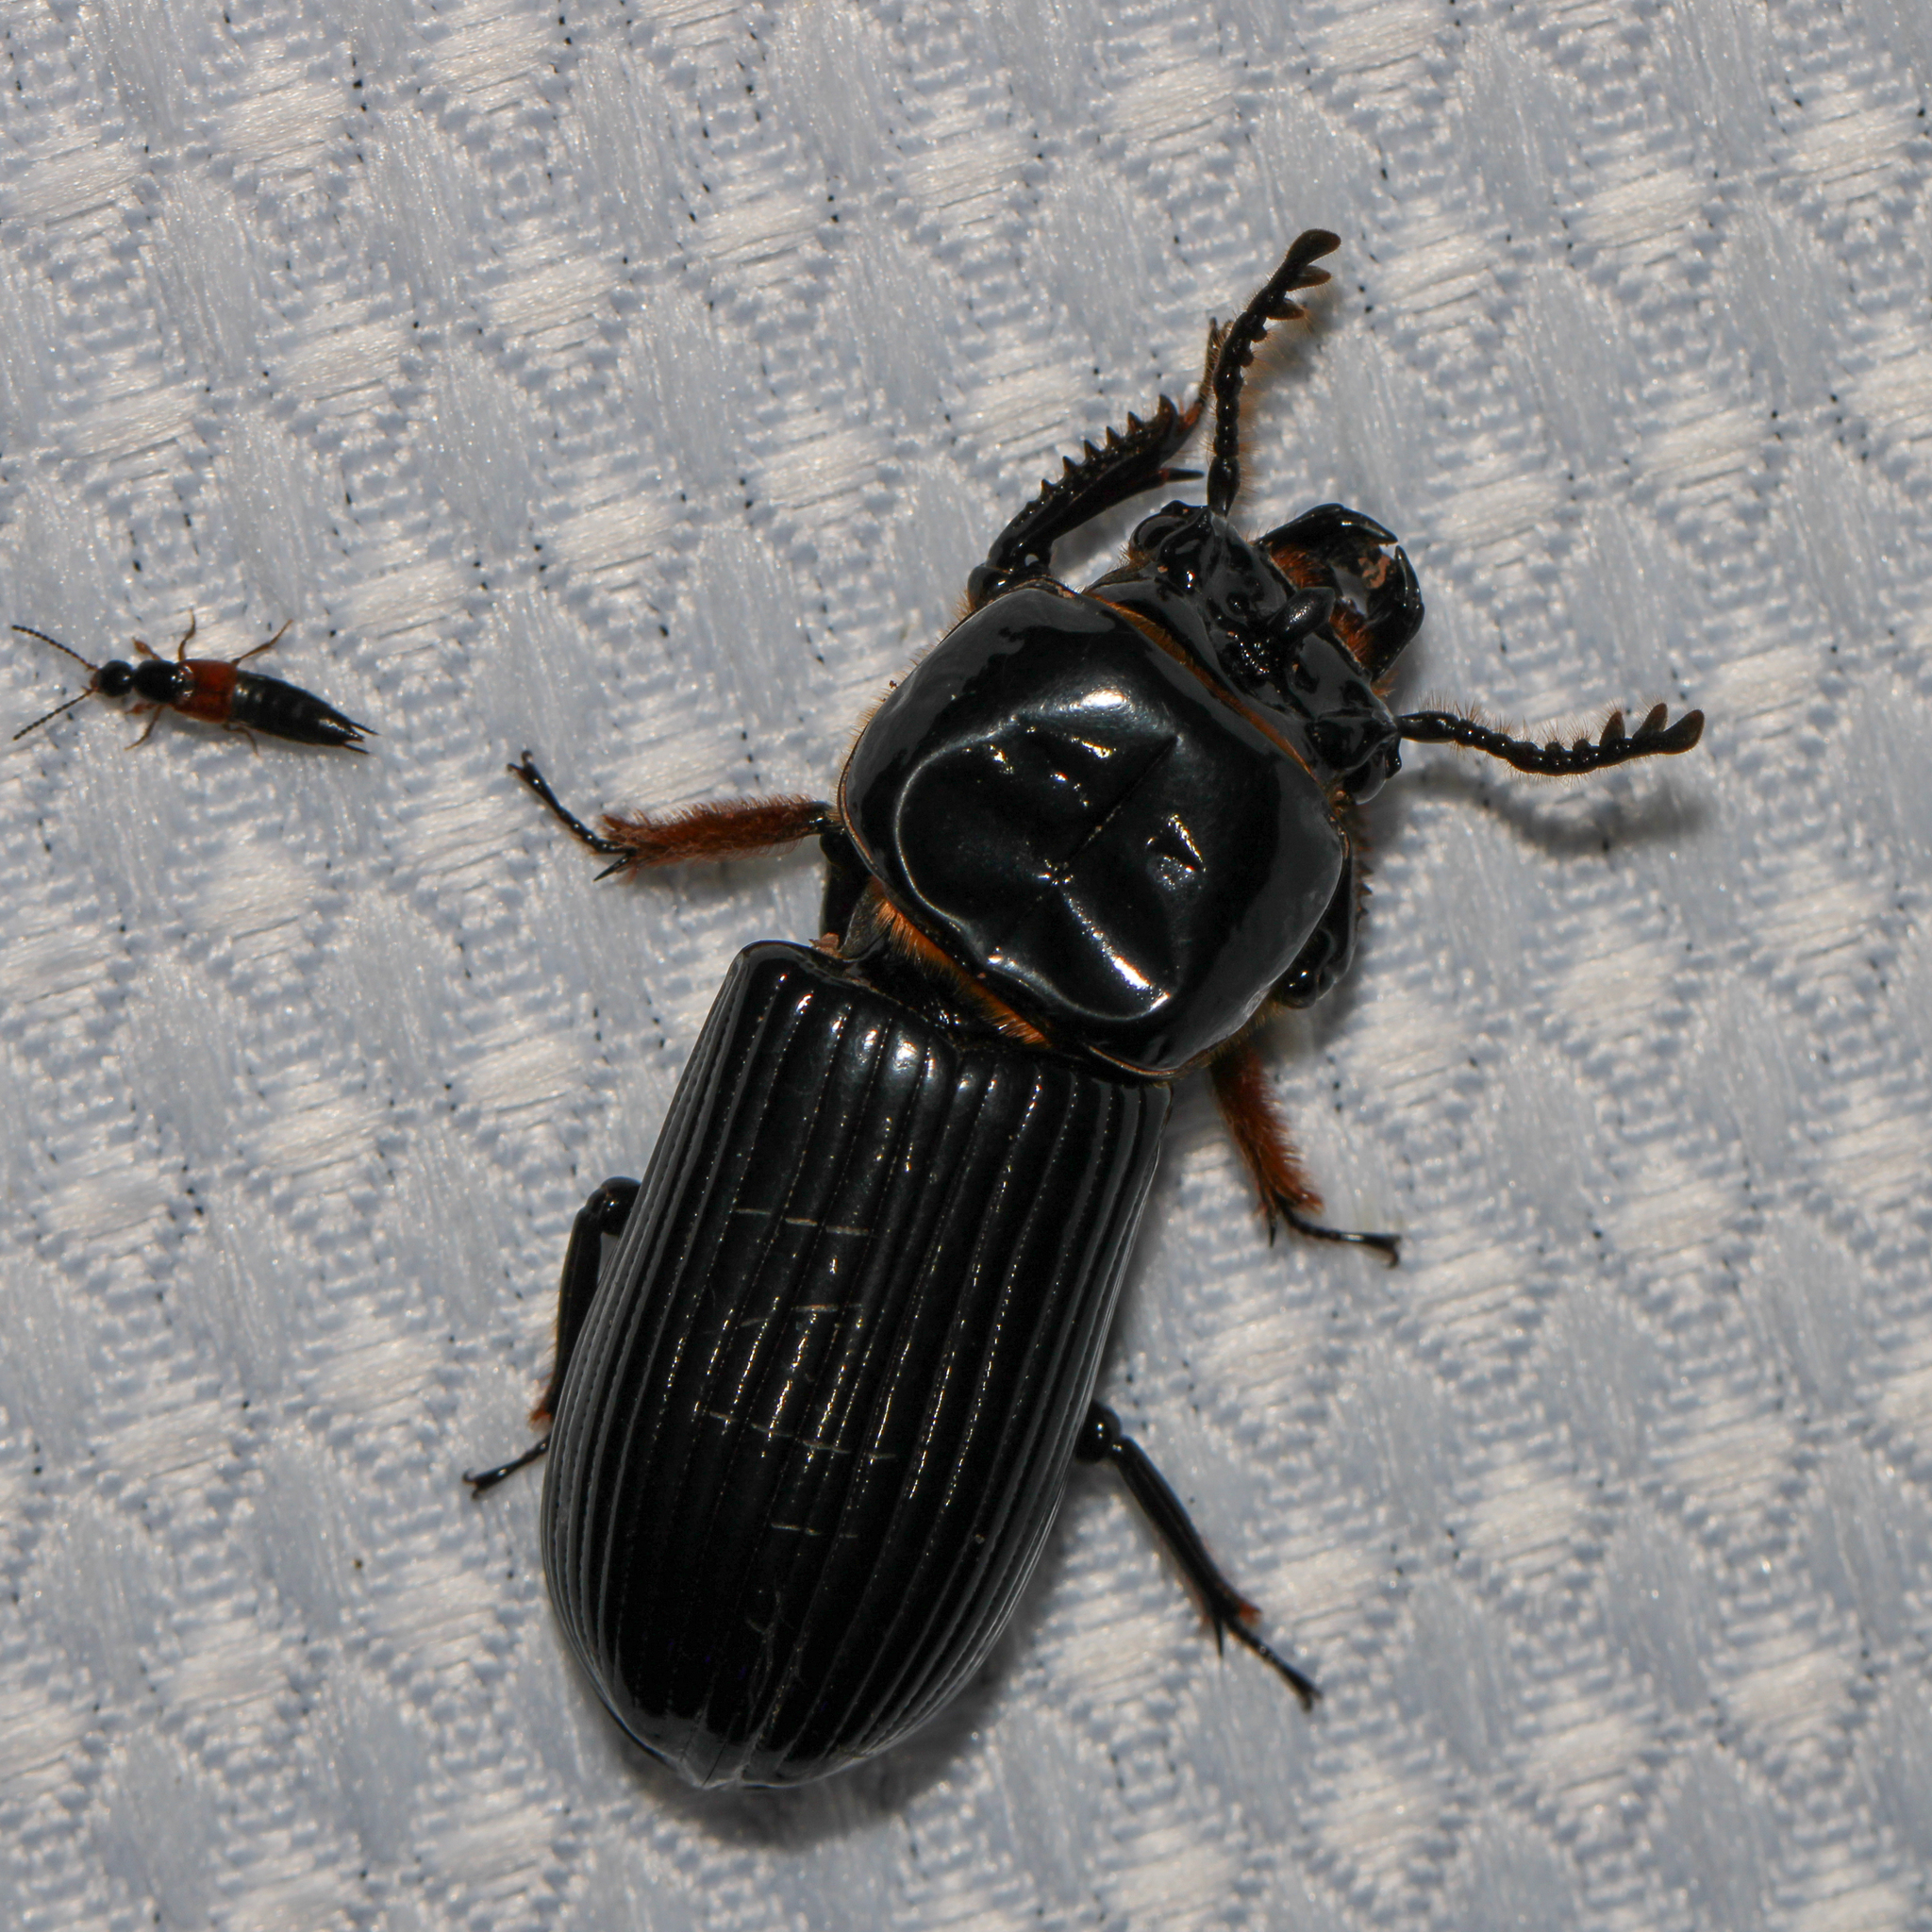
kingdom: Animalia
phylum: Arthropoda
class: Insecta
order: Coleoptera
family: Passalidae
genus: Odontotaenius
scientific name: Odontotaenius disjunctus
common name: Patent leather beetle
